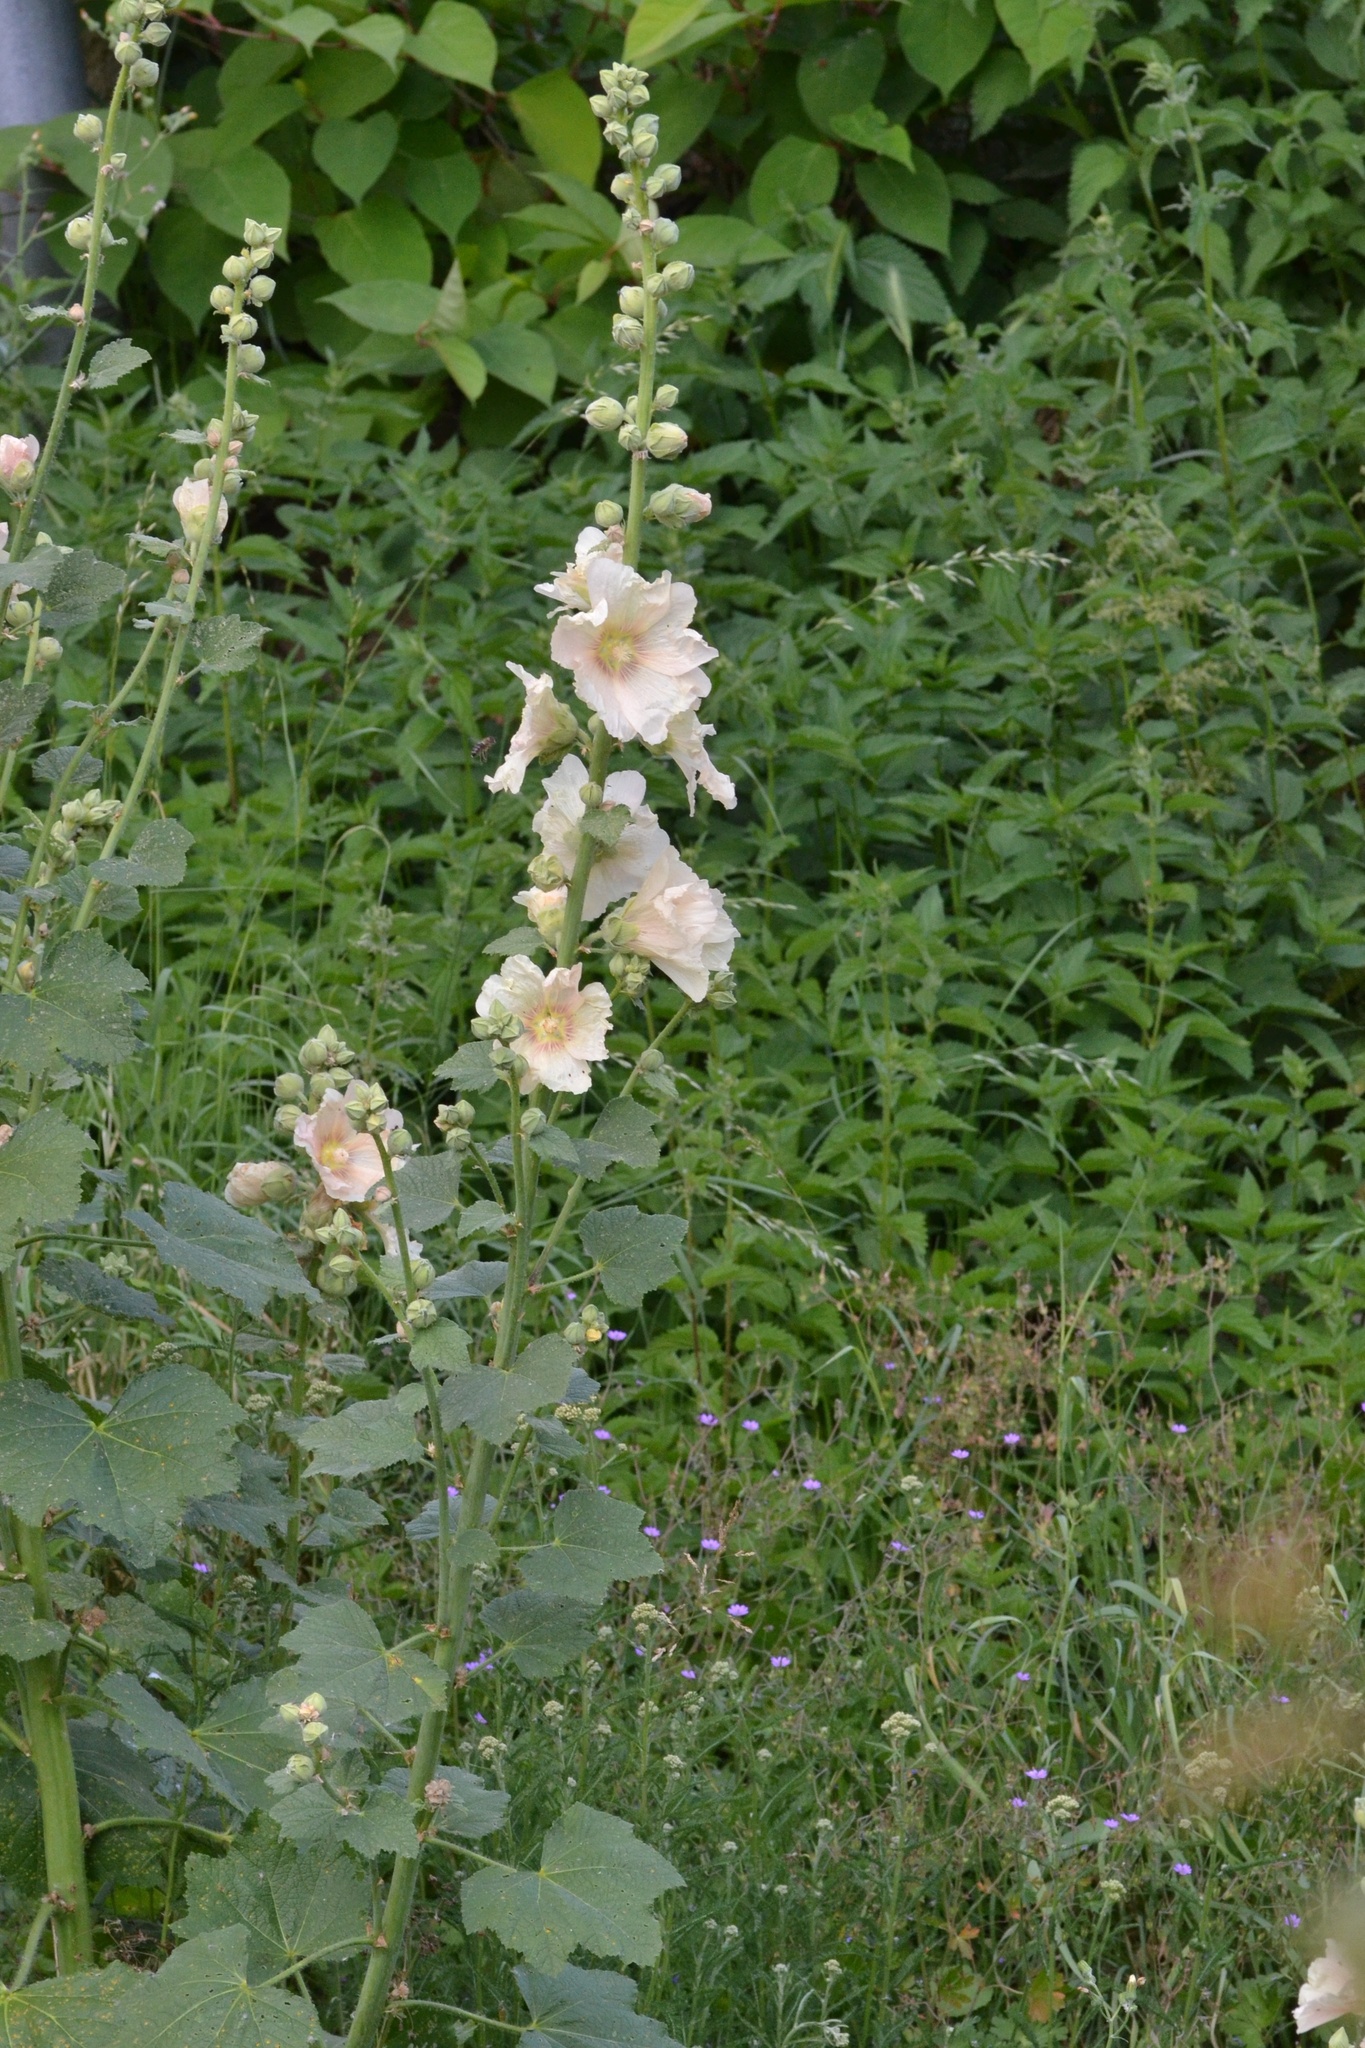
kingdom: Plantae
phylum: Tracheophyta
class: Magnoliopsida
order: Malvales
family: Malvaceae
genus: Alcea
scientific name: Alcea rosea
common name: Hollyhock
